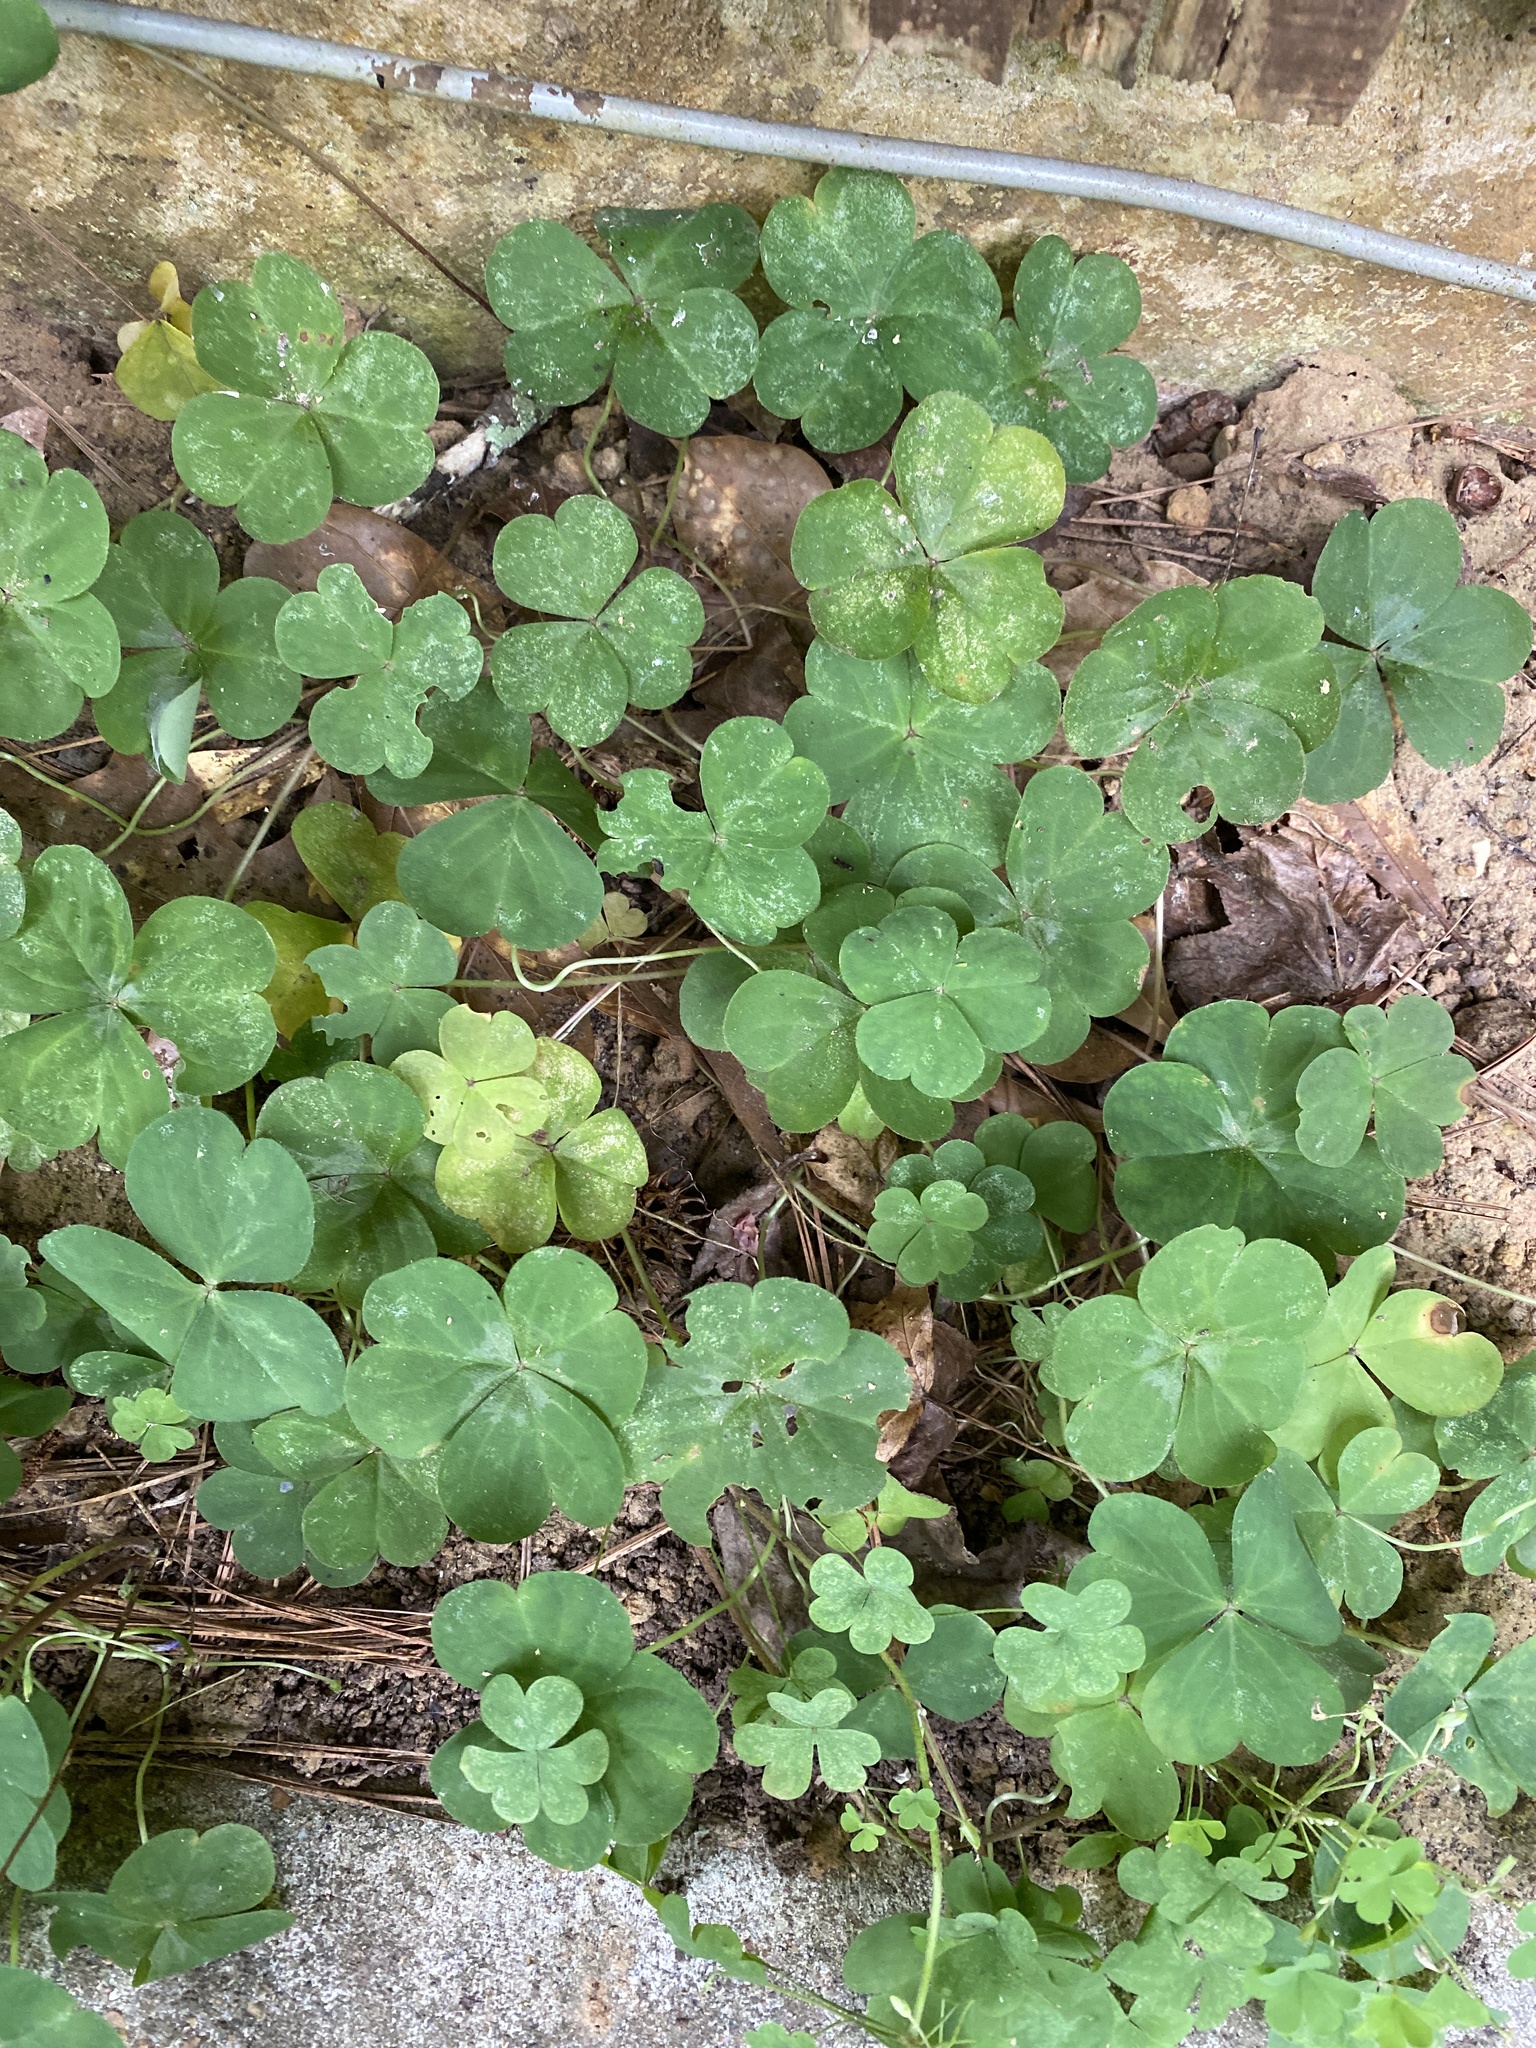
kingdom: Plantae
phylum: Tracheophyta
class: Magnoliopsida
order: Oxalidales
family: Oxalidaceae
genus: Oxalis
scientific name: Oxalis debilis
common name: Large-flowered pink-sorrel
